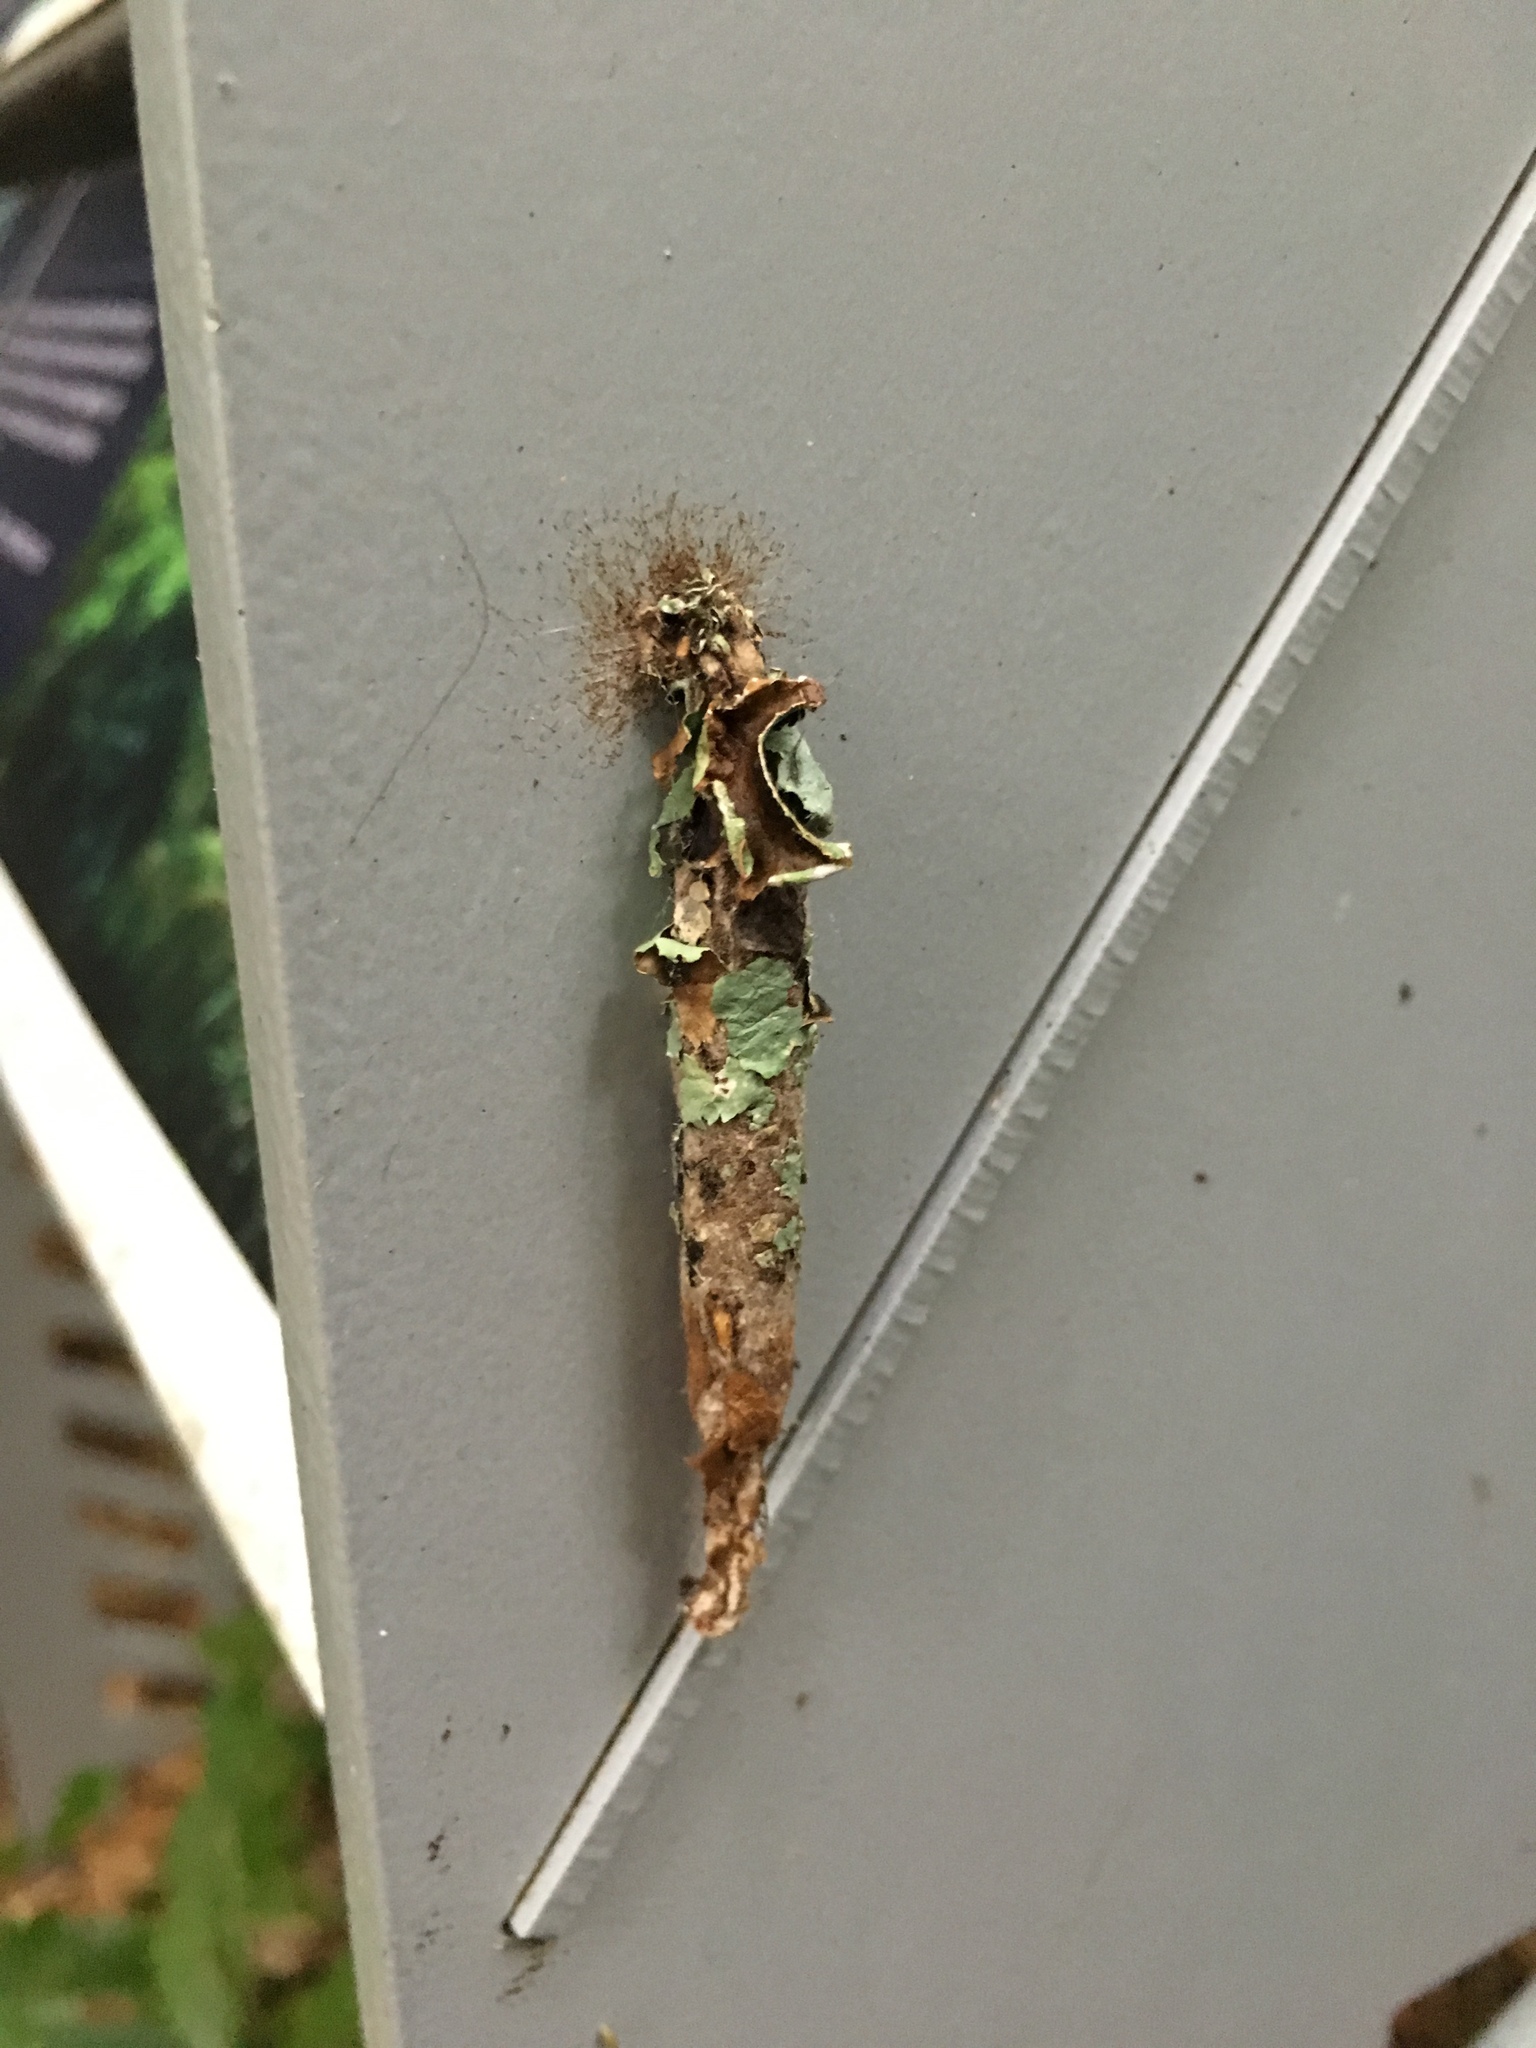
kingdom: Animalia
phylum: Arthropoda
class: Insecta
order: Lepidoptera
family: Psychidae
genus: Liothula
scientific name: Liothula omnivora
